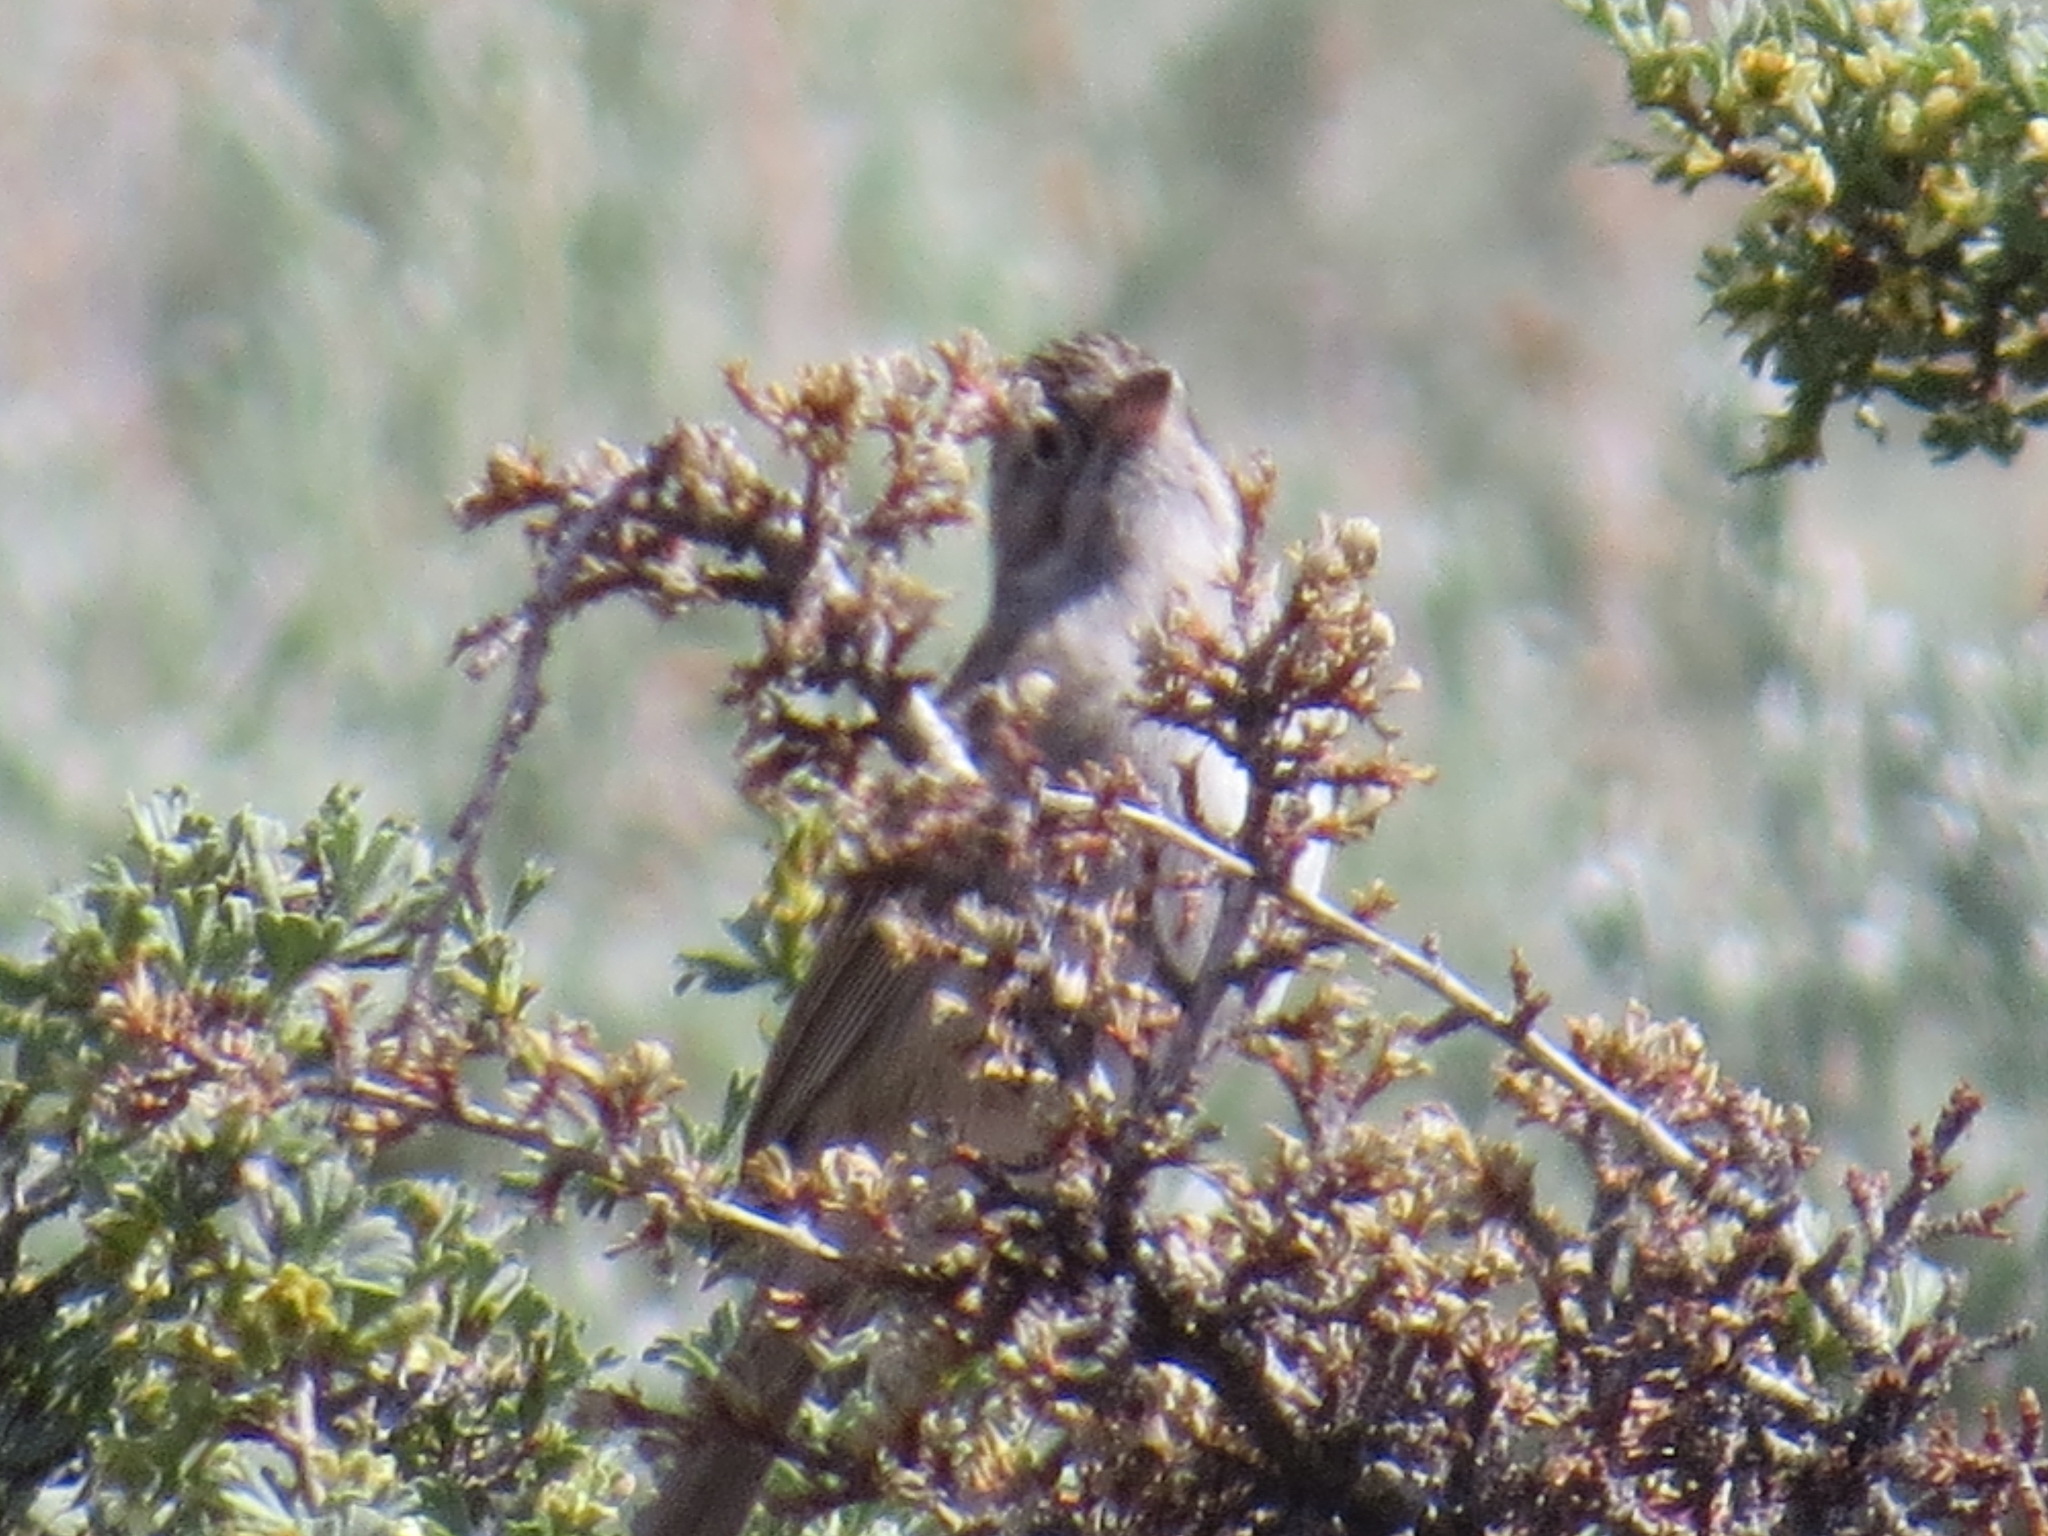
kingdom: Animalia
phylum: Chordata
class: Aves
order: Passeriformes
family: Passerellidae
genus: Spizella
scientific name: Spizella breweri
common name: Brewer's sparrow
